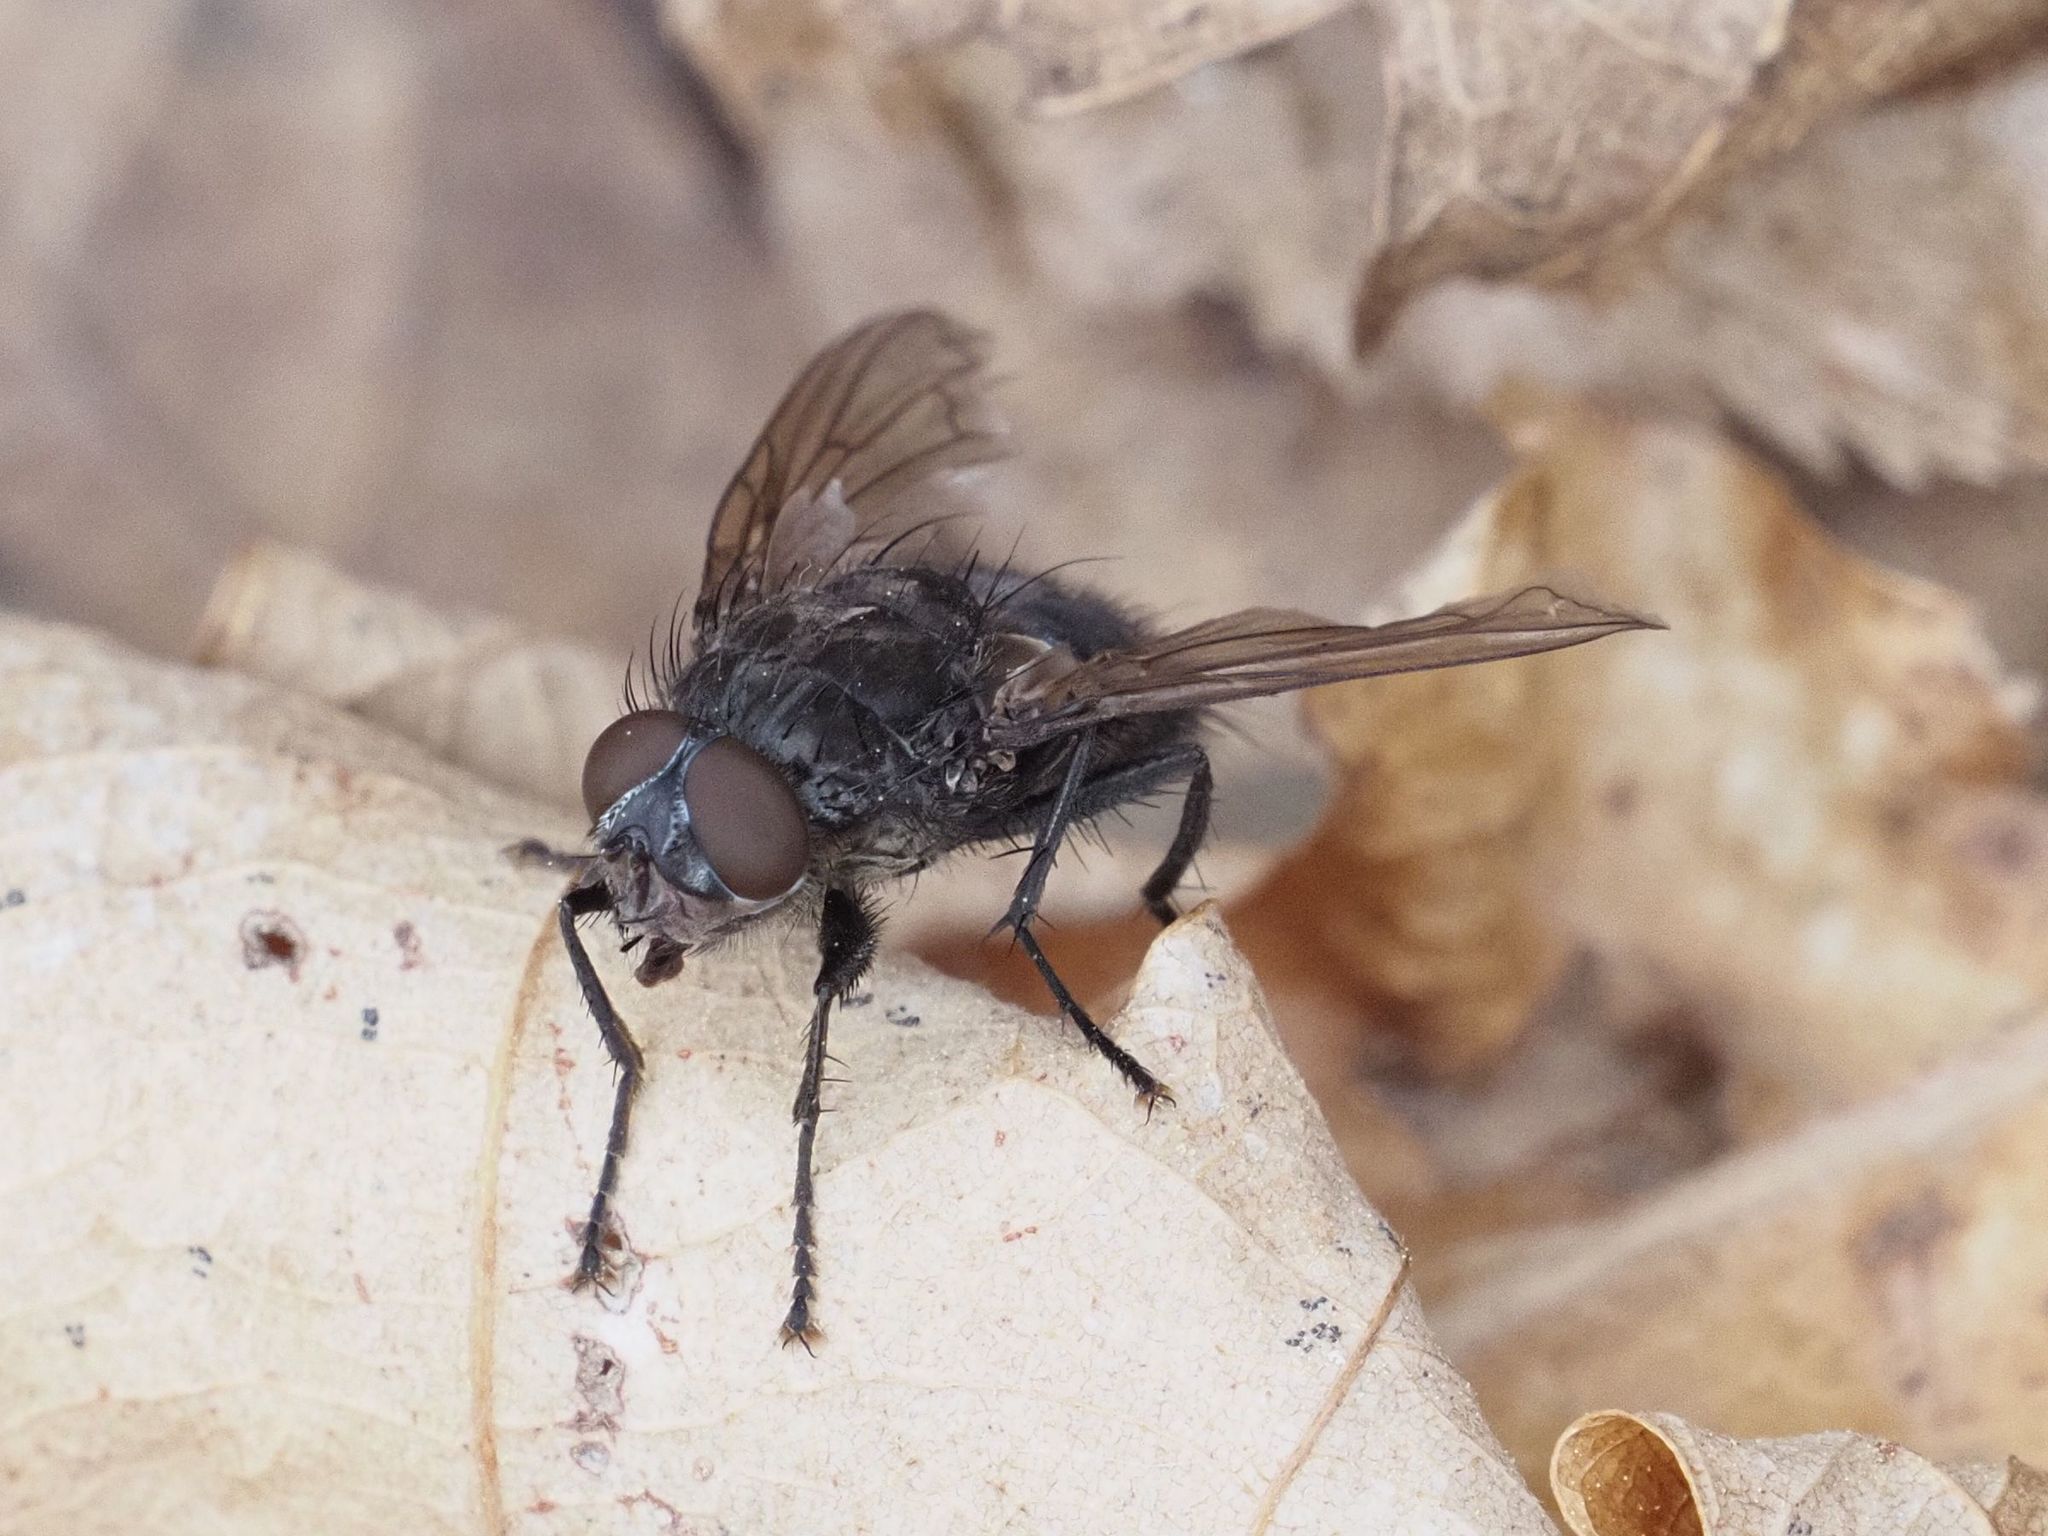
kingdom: Animalia
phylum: Arthropoda
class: Insecta
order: Diptera
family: Polleniidae
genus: Pollenia
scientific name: Pollenia vagabunda
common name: Vagabund cluster fly
